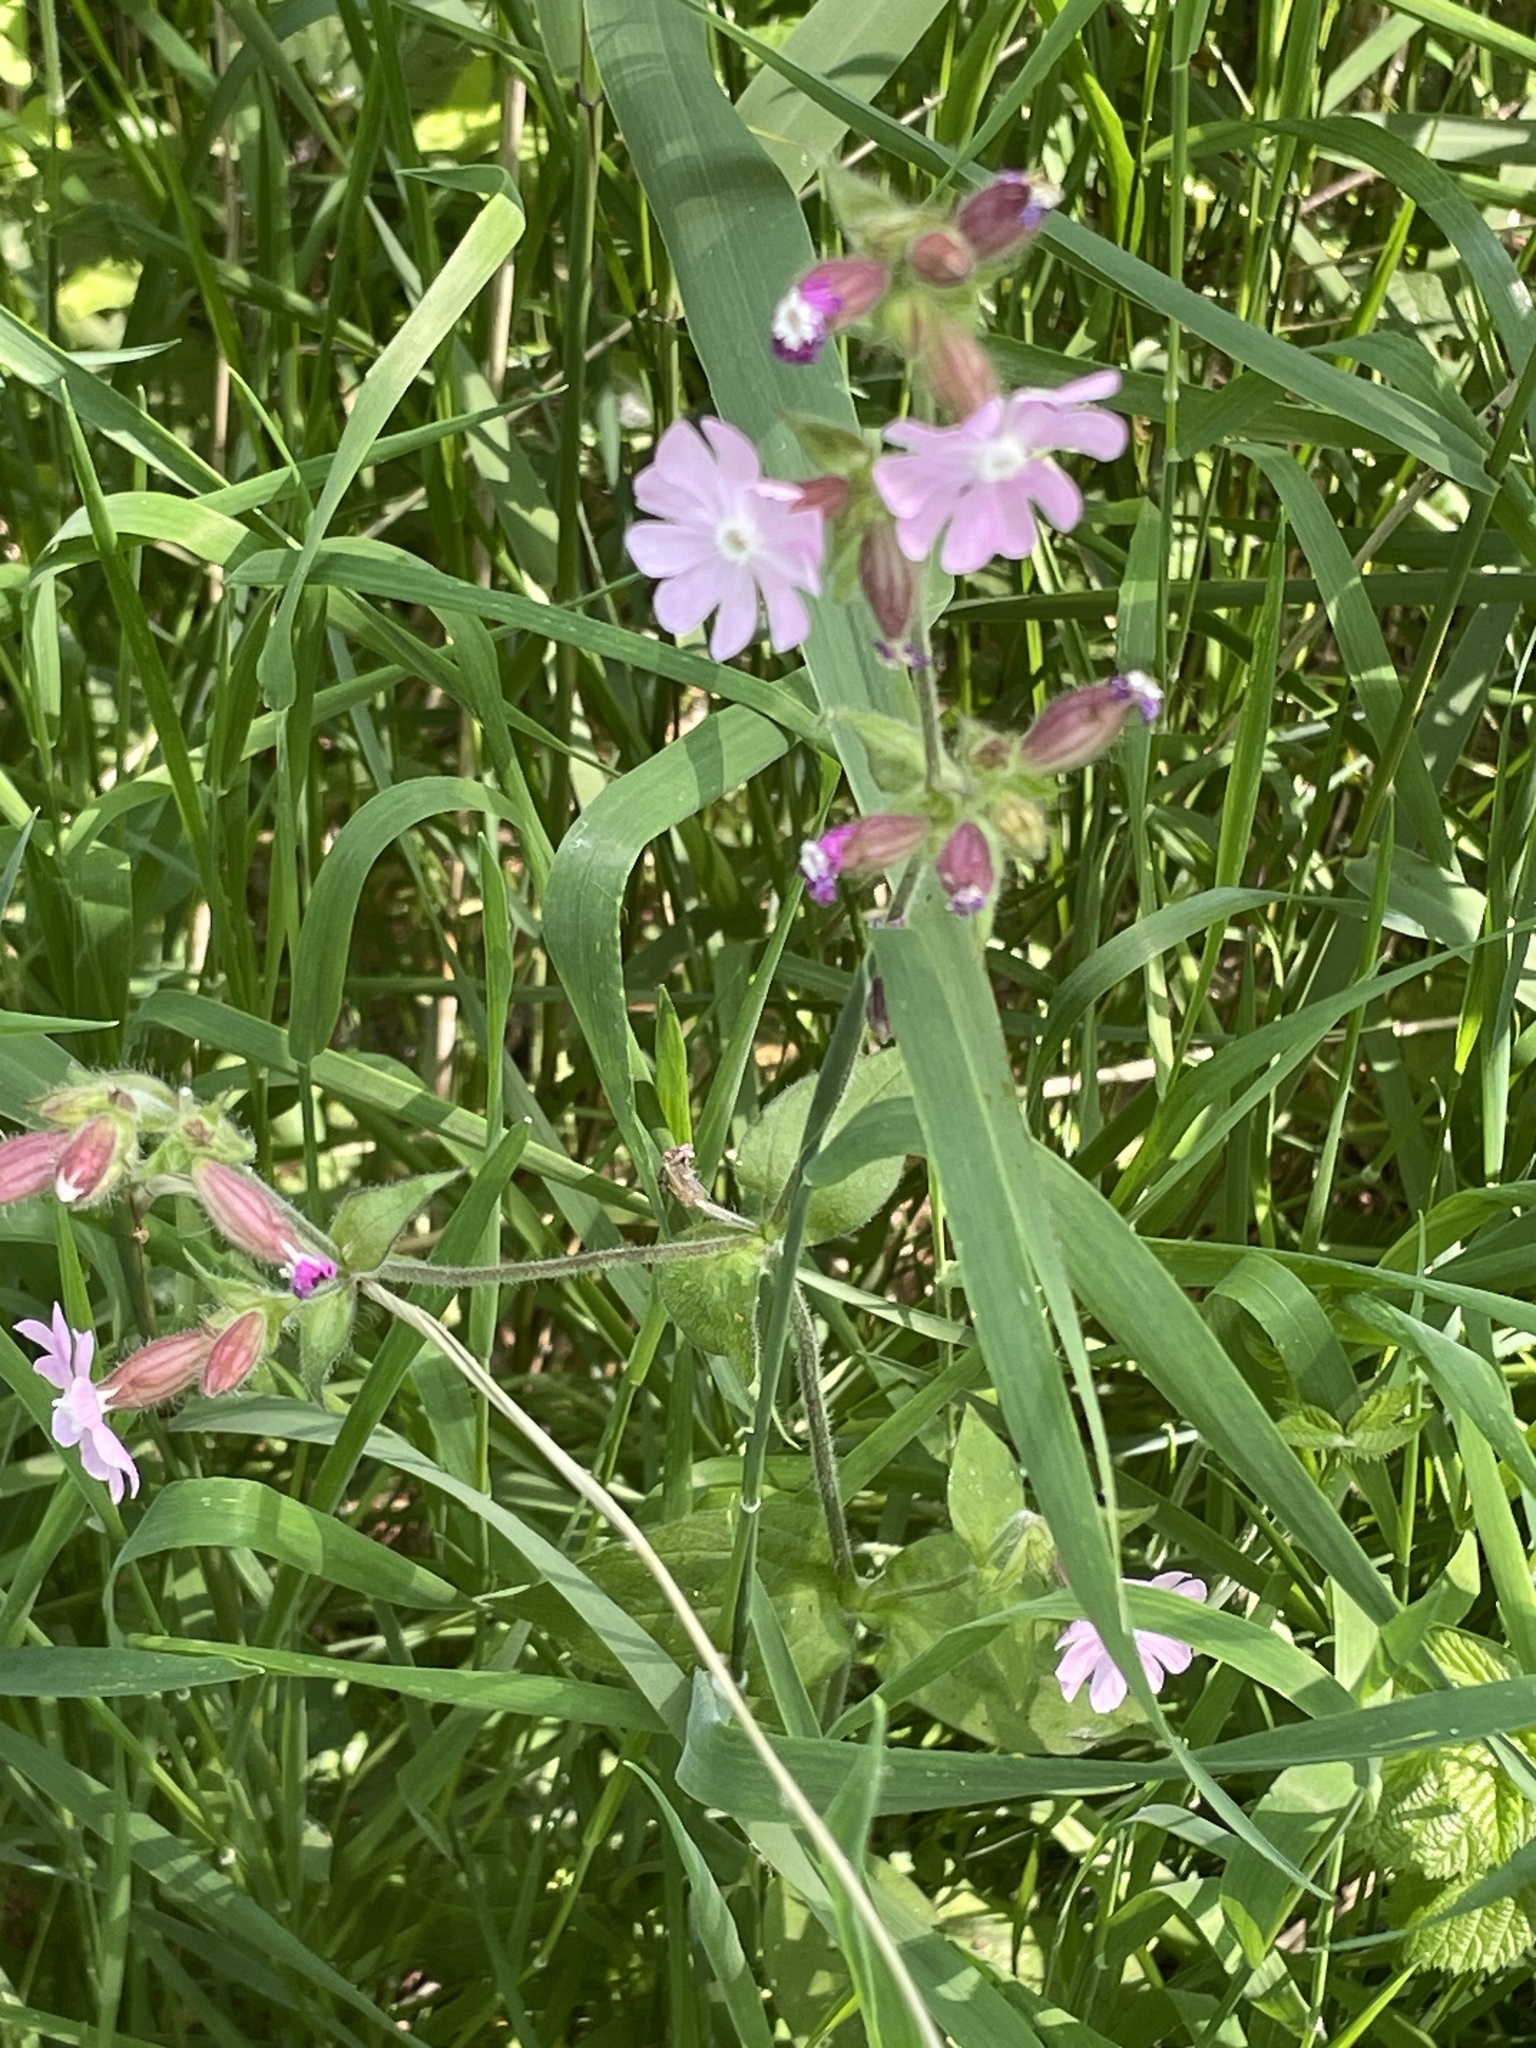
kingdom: Plantae
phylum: Tracheophyta
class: Magnoliopsida
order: Caryophyllales
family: Caryophyllaceae
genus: Silene
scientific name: Silene dioica
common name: Red campion
